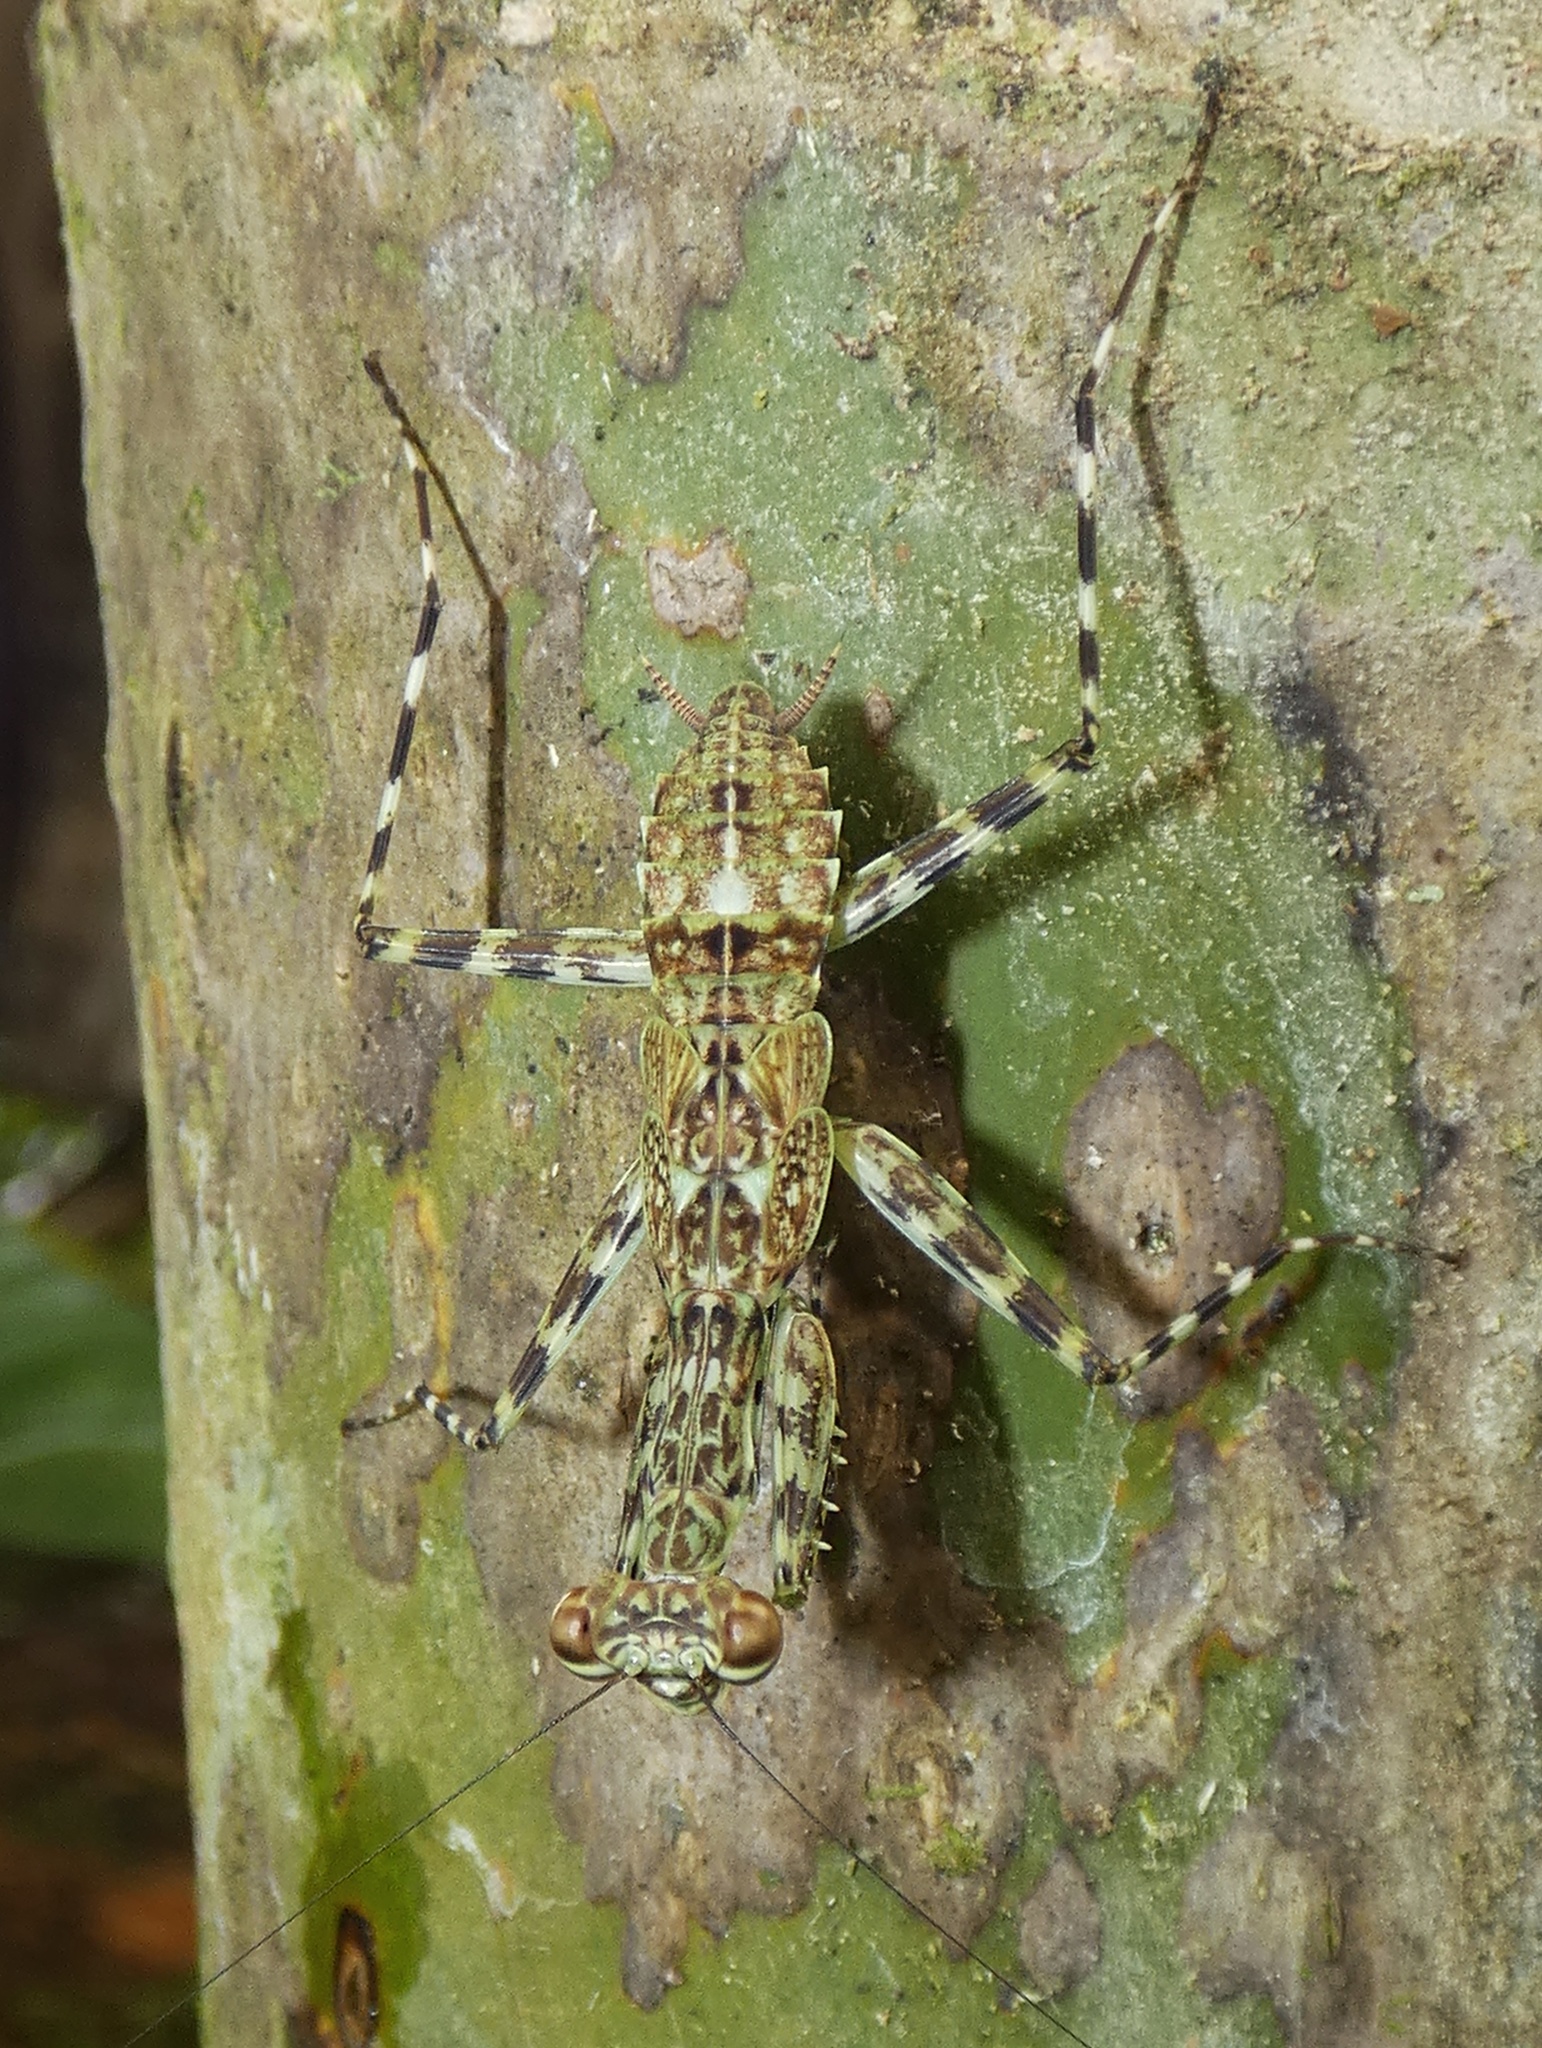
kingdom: Animalia
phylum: Arthropoda
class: Insecta
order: Mantodea
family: Liturgusidae
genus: Liturgusa
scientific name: Liturgusa maya
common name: Mantis
